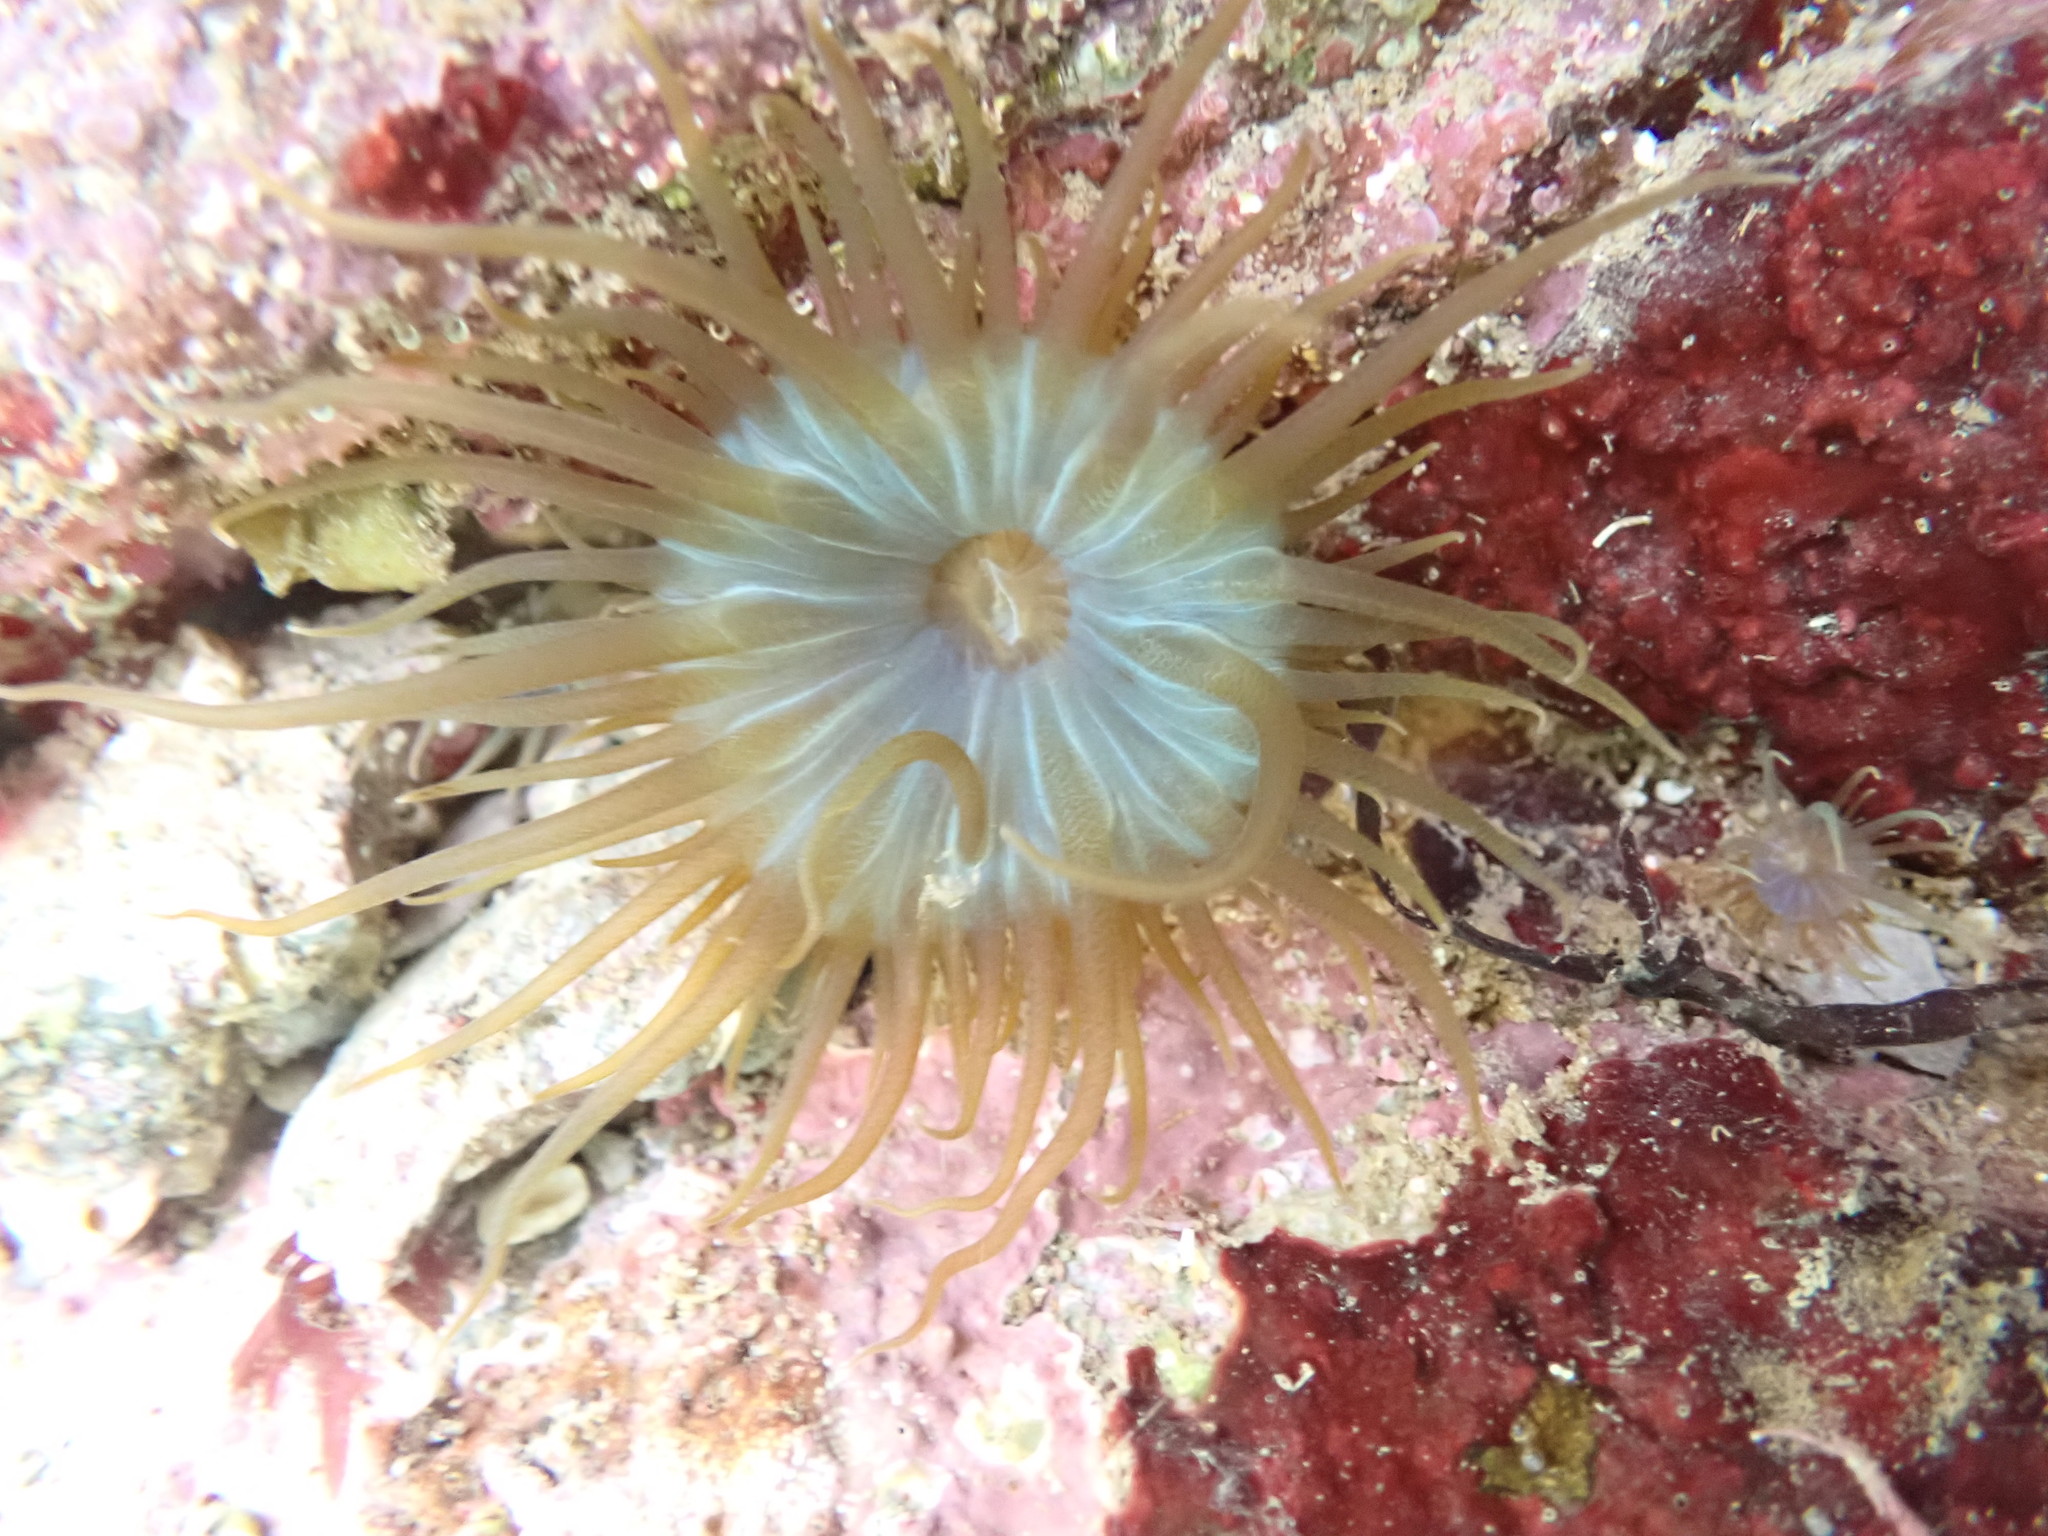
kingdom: Animalia
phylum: Cnidaria
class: Anthozoa
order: Actiniaria
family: Aiptasiidae
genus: Aiptasia
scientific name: Aiptasia couchii
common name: Trumpet anemone
